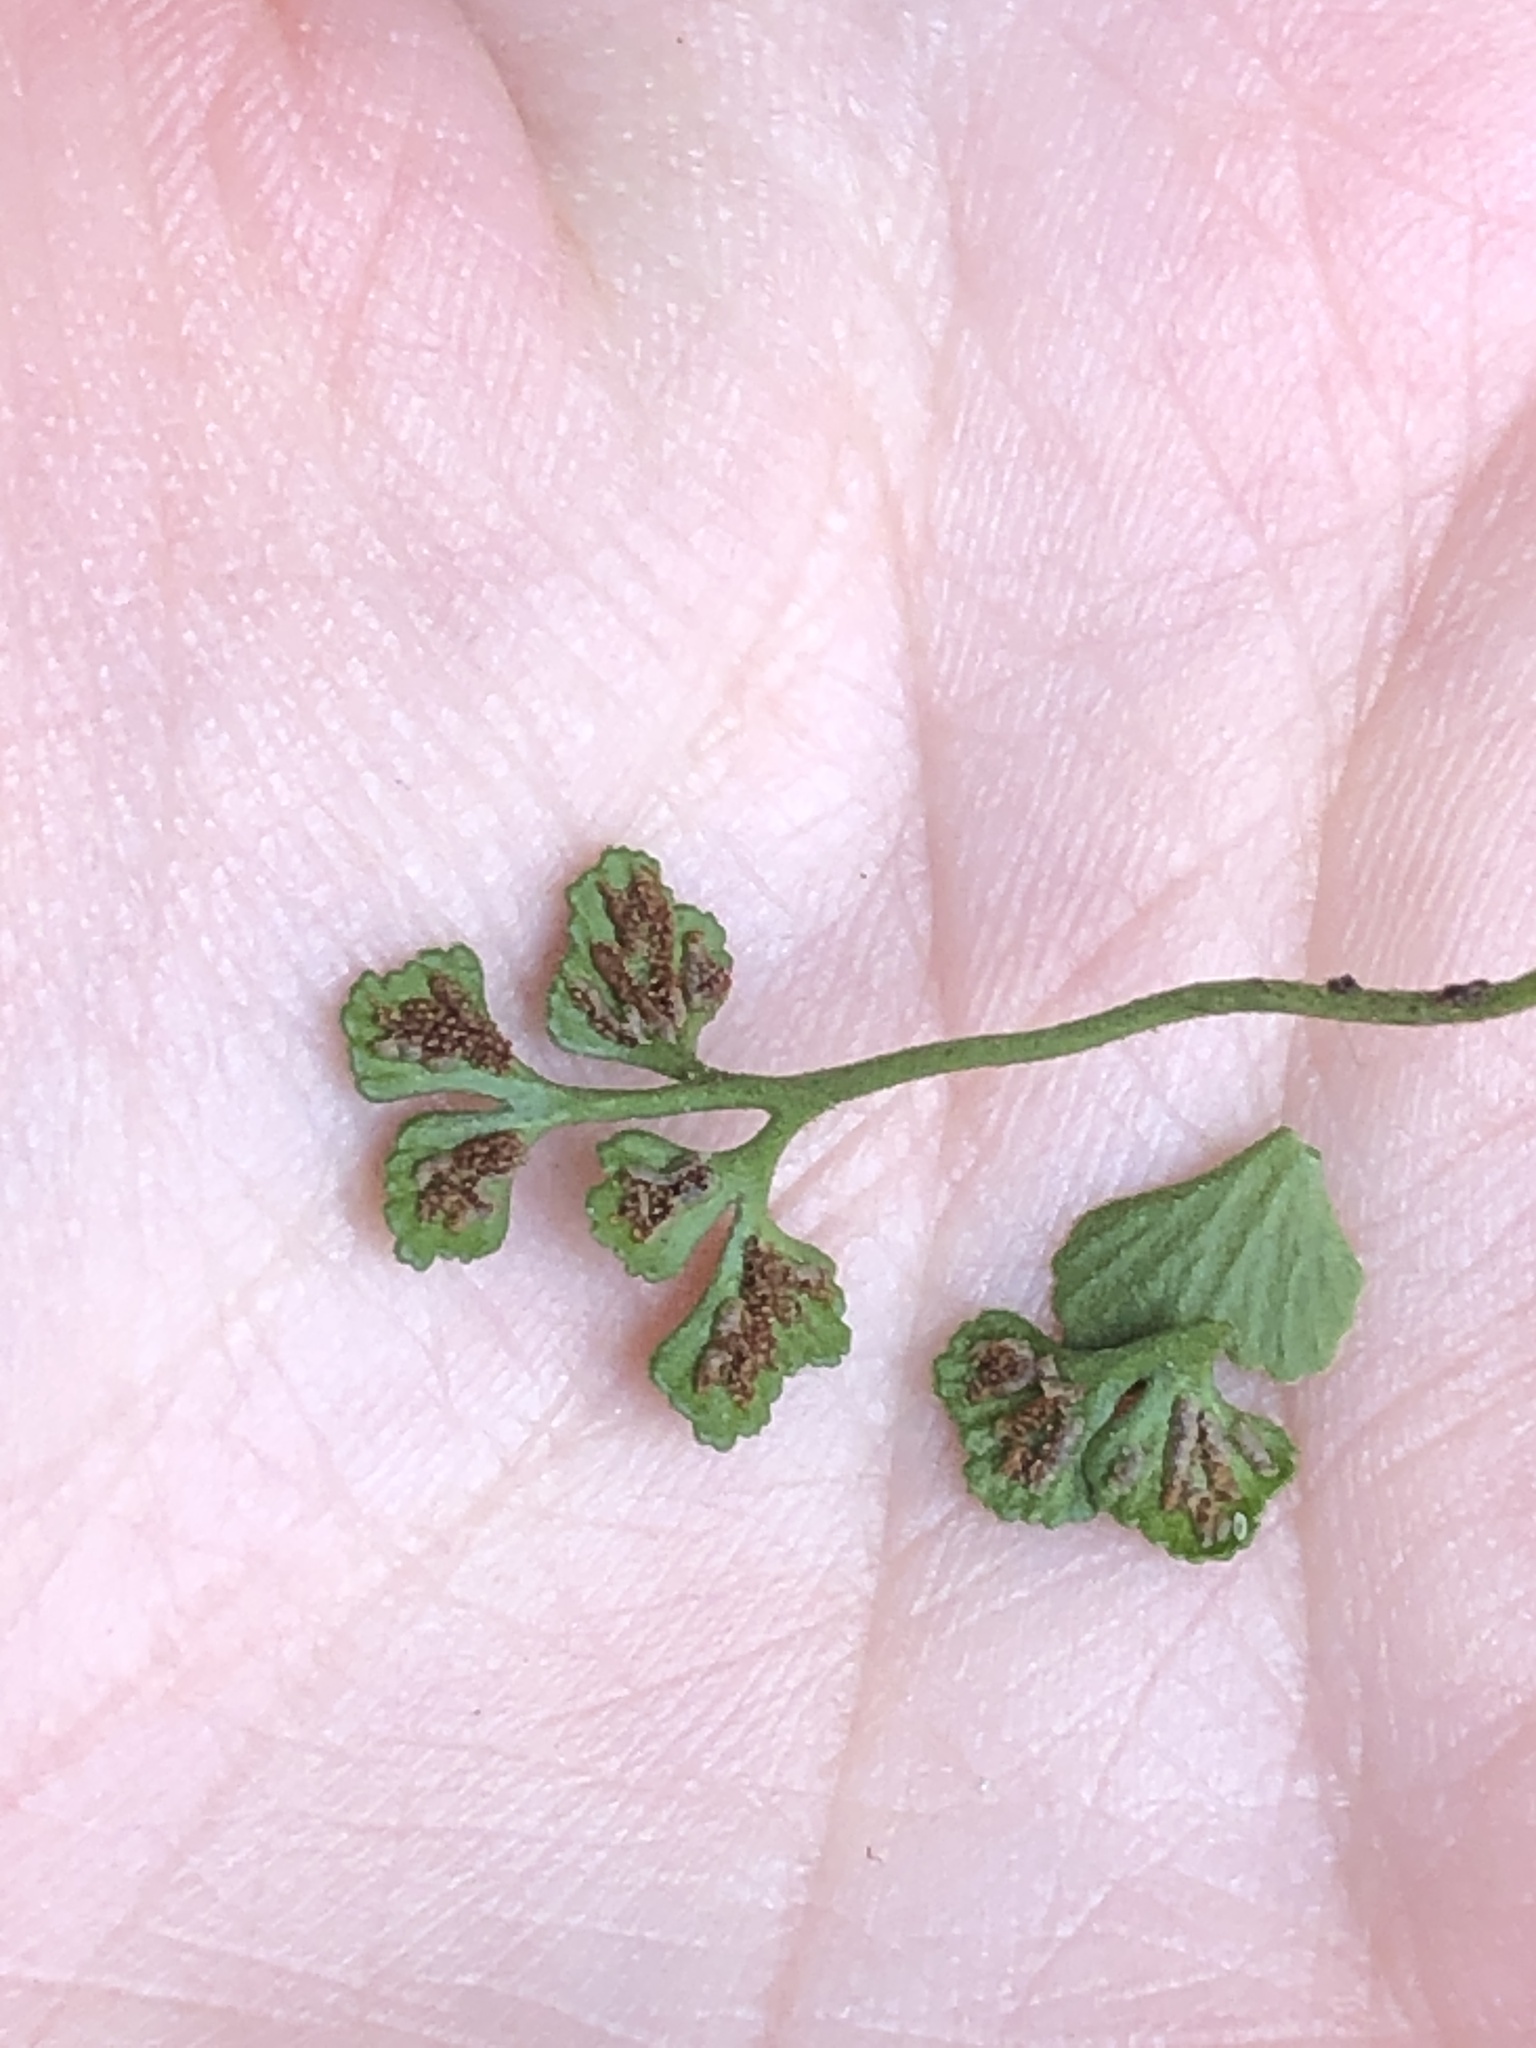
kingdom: Plantae
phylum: Tracheophyta
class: Polypodiopsida
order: Polypodiales
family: Aspleniaceae
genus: Asplenium
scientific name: Asplenium ruta-muraria
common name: Wall-rue
